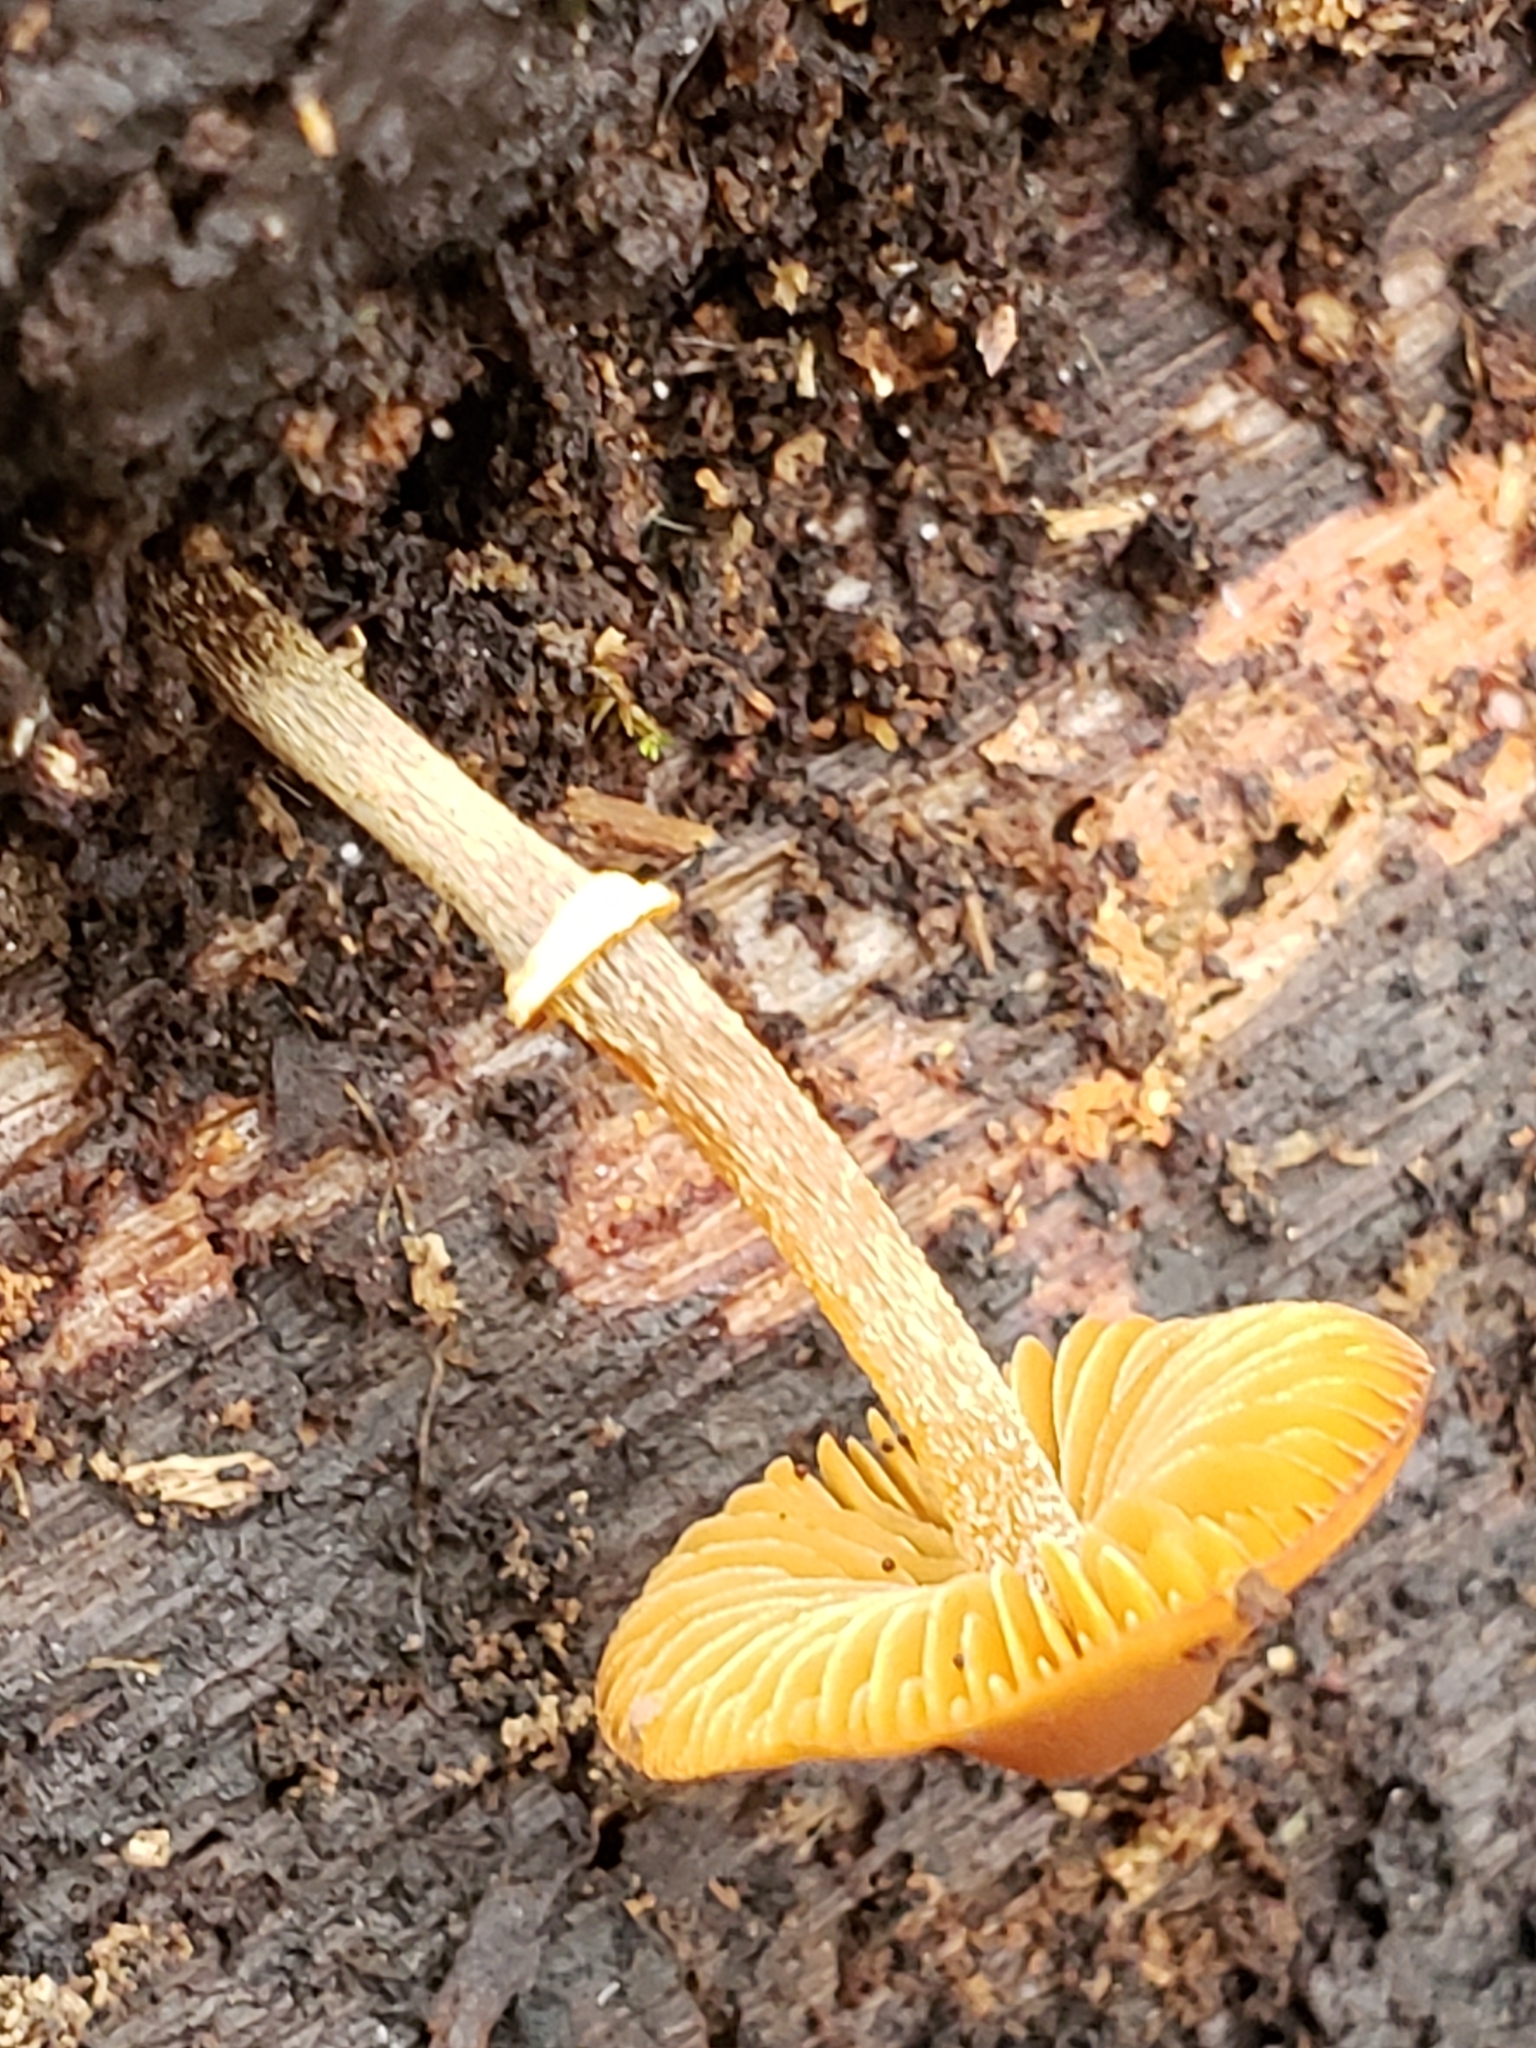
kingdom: Fungi
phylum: Basidiomycota
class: Agaricomycetes
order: Agaricales
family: Bolbitiaceae
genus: Conocybe
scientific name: Conocybe rugosa
